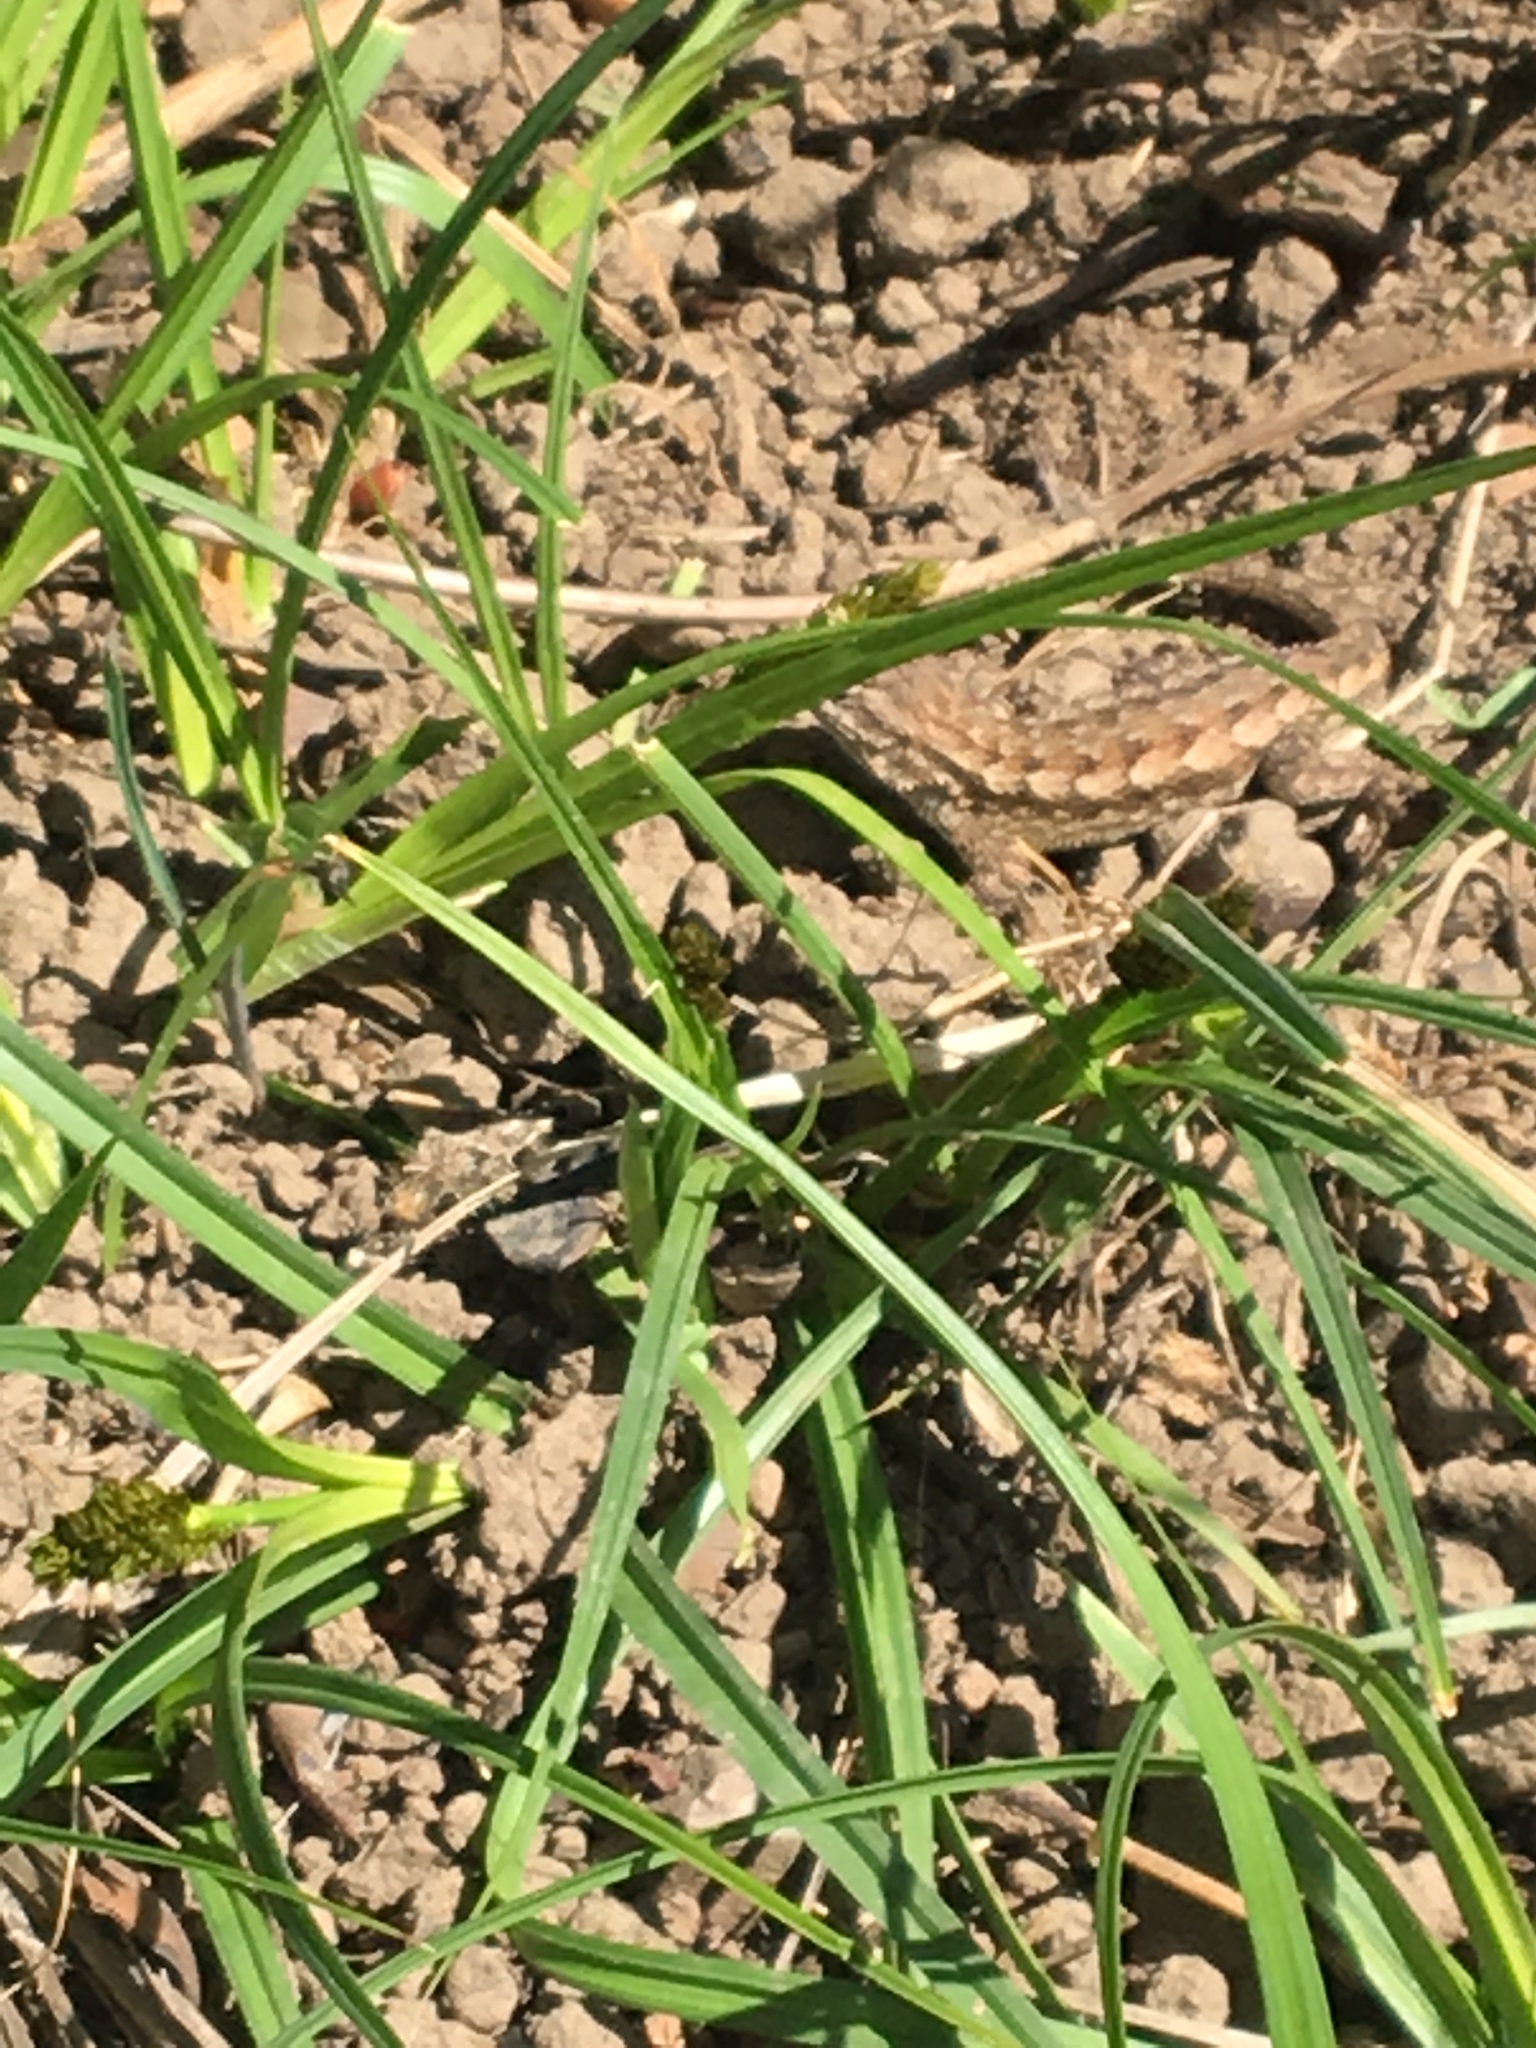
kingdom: Animalia
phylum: Chordata
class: Squamata
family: Phrynosomatidae
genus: Sceloporus
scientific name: Sceloporus occidentalis
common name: Western fence lizard
